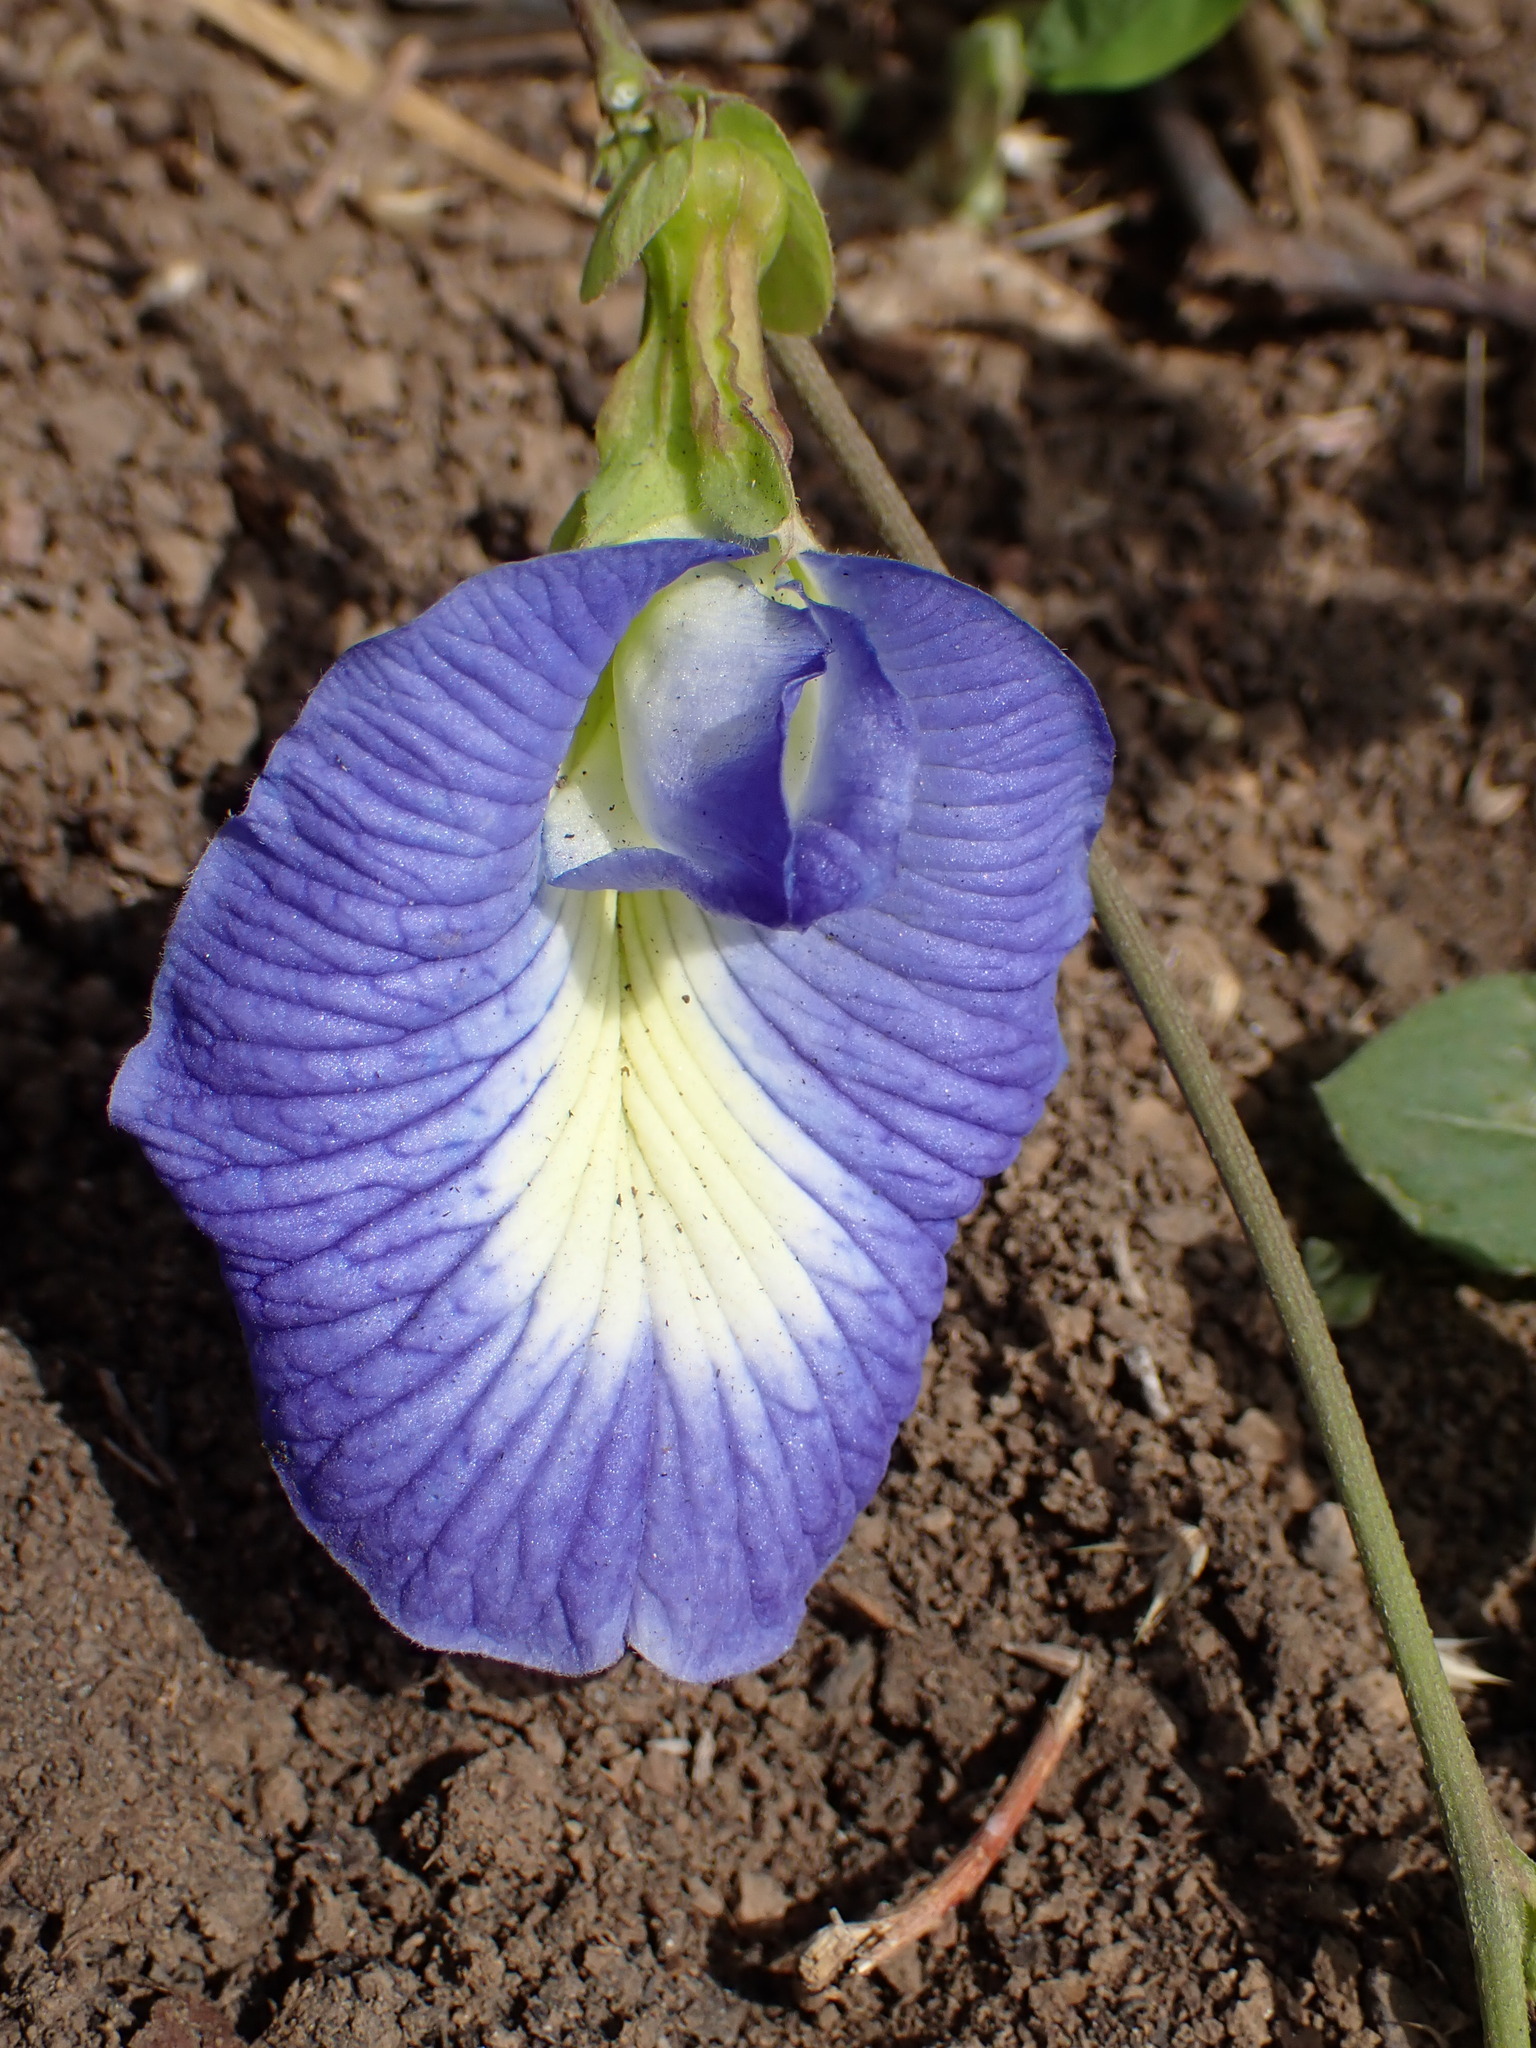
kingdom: Plantae
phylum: Tracheophyta
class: Magnoliopsida
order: Fabales
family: Fabaceae
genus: Clitoria
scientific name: Clitoria ternatea
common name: Asian pigeonwings
